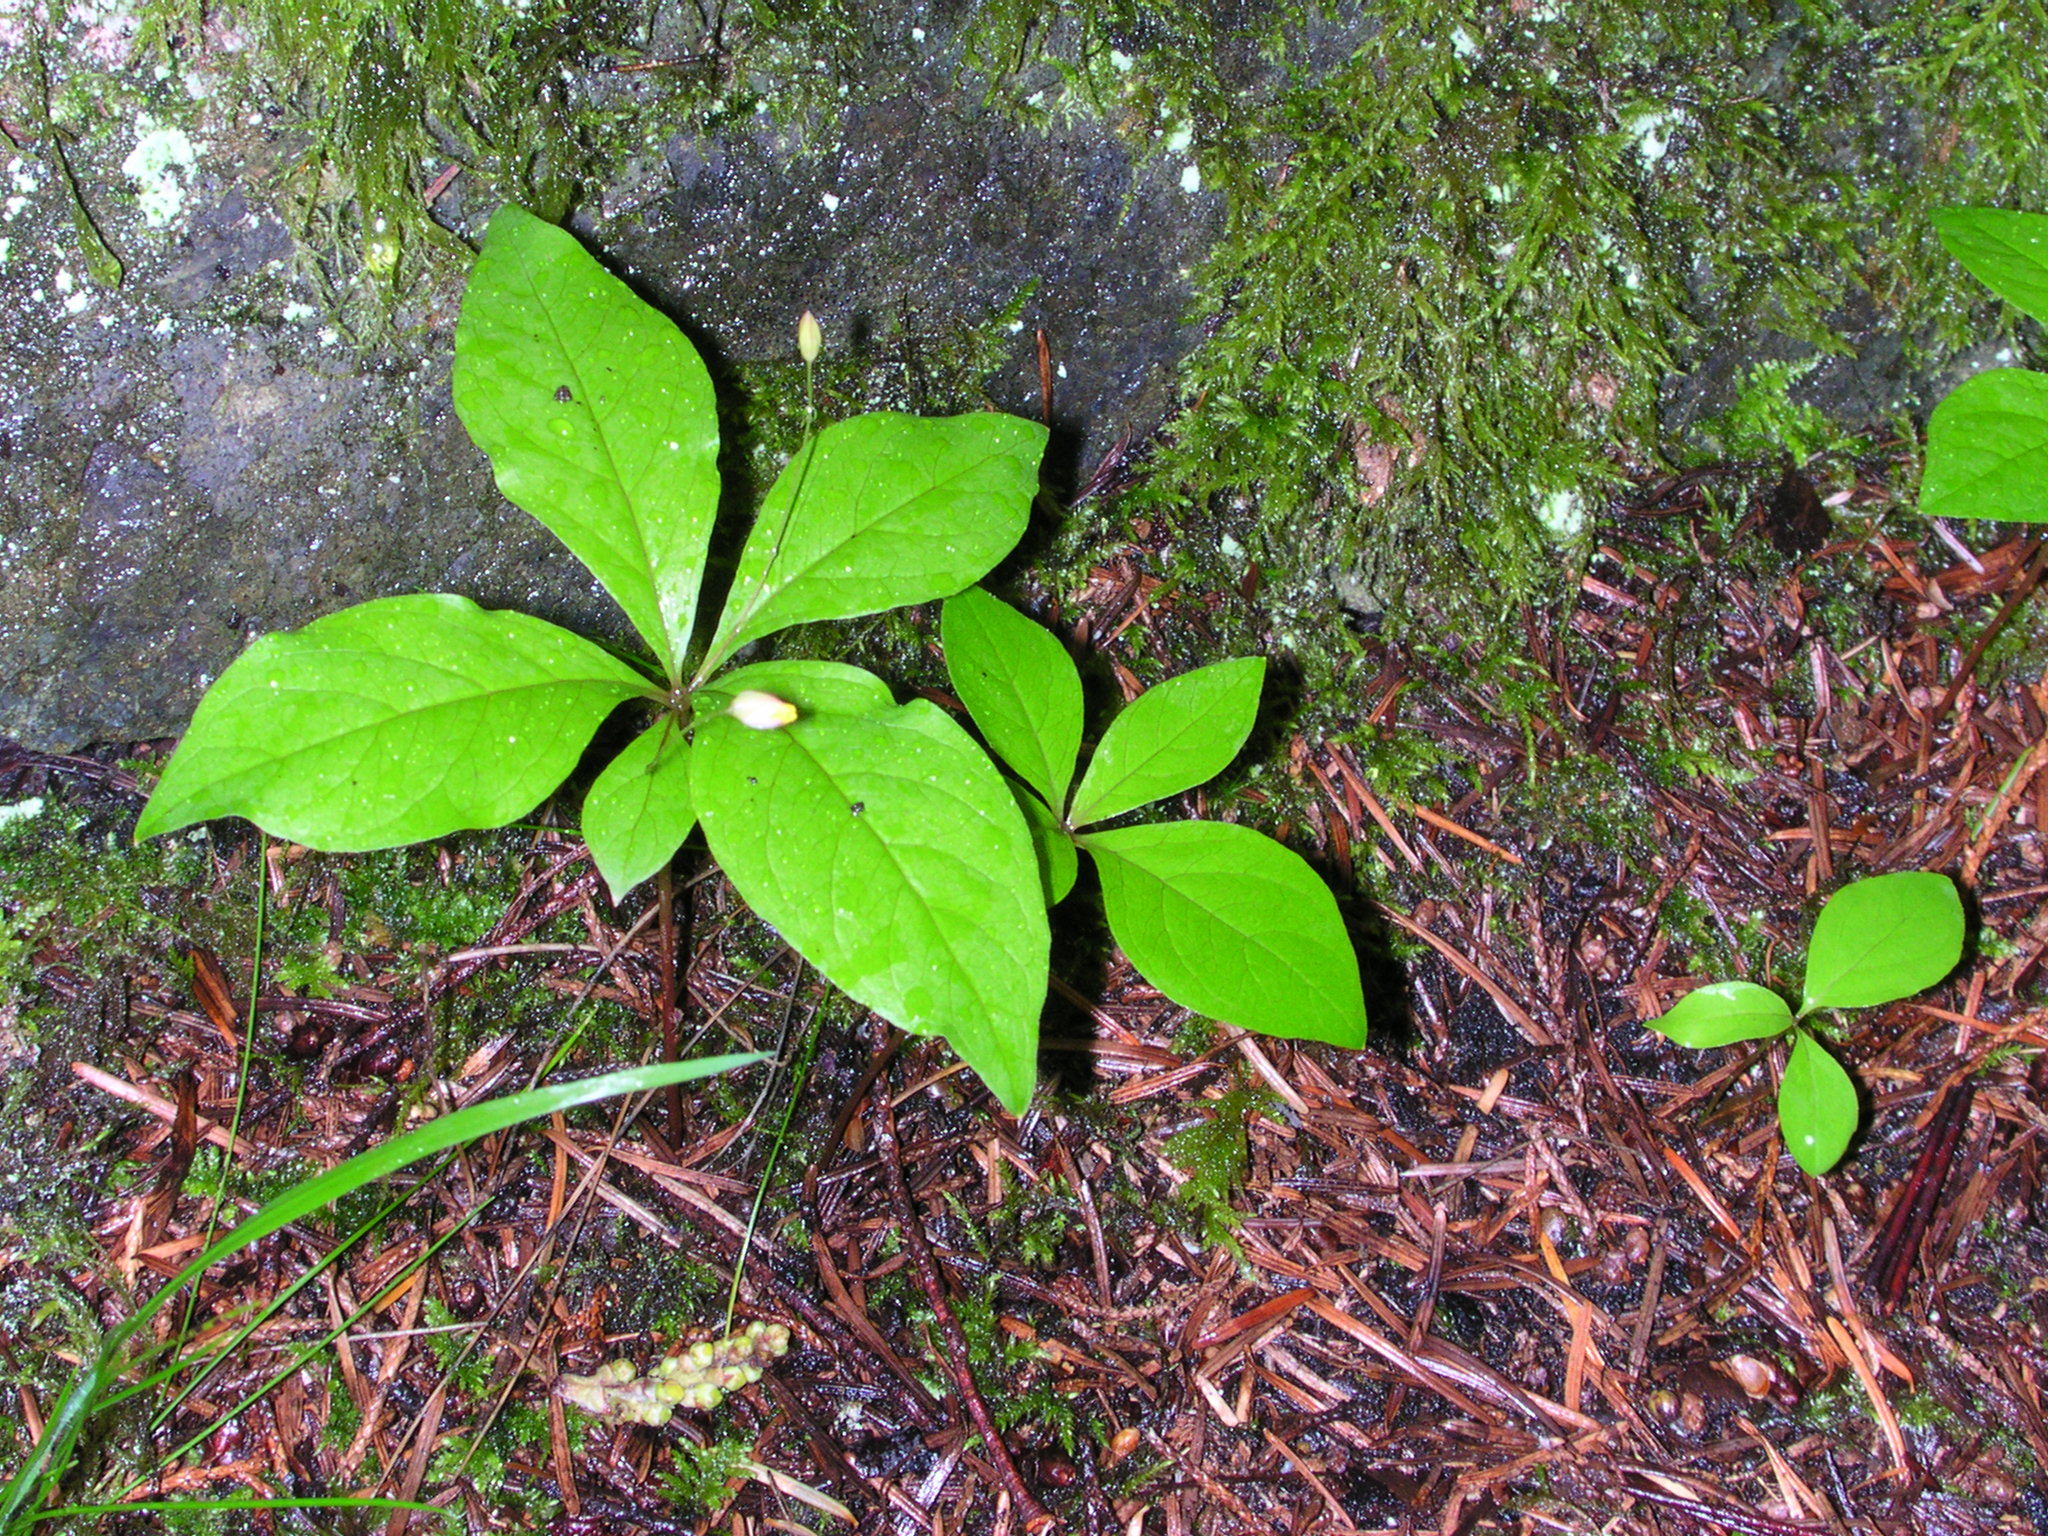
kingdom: Plantae
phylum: Tracheophyta
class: Magnoliopsida
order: Ericales
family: Primulaceae
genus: Lysimachia
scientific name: Lysimachia latifolia
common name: Pacific starflower
